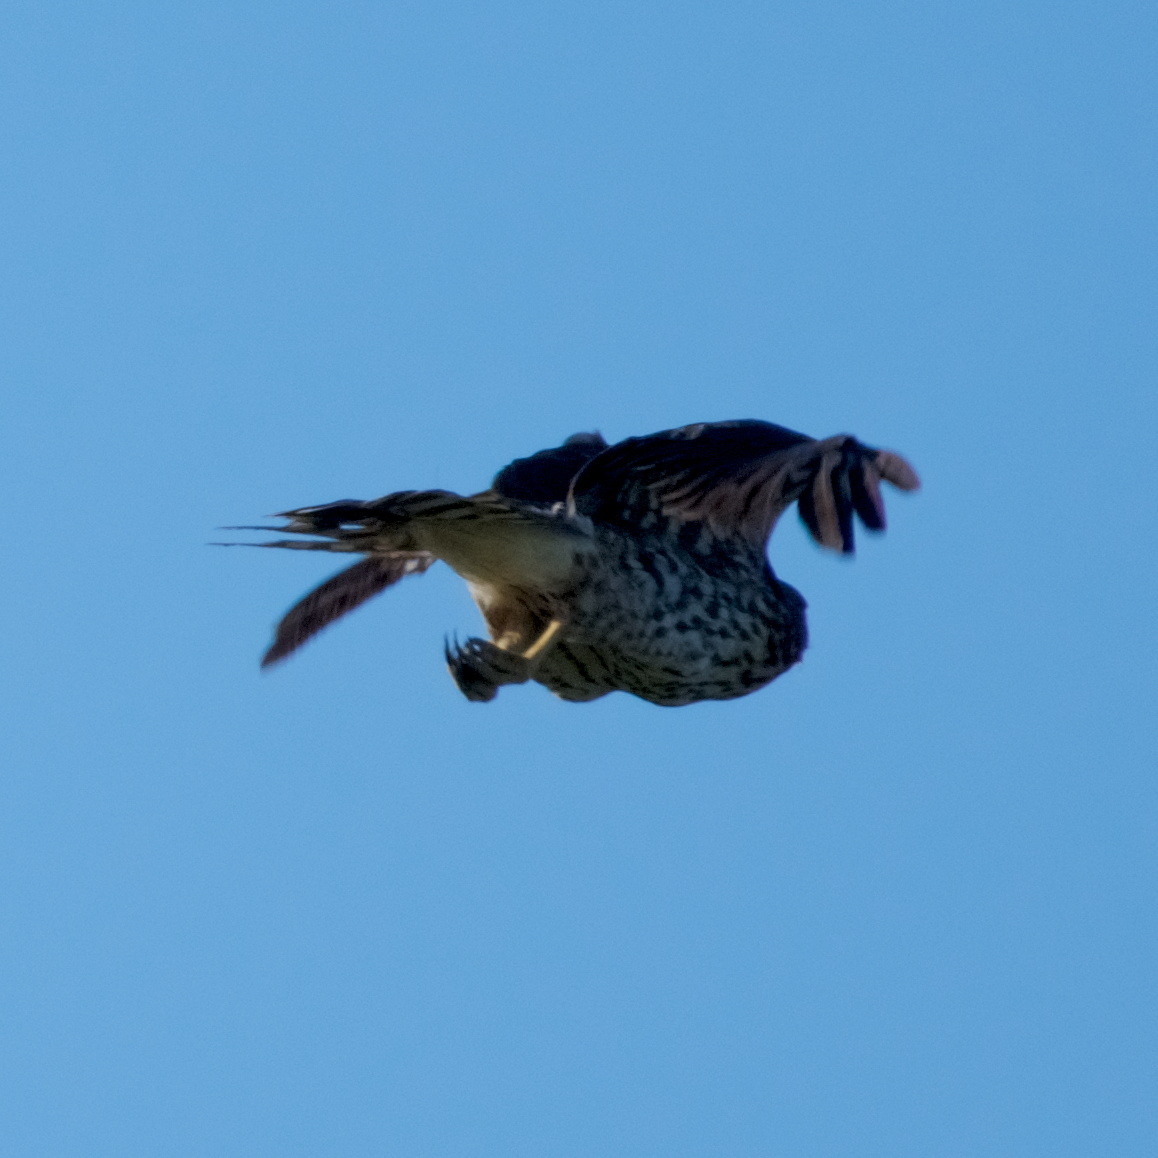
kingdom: Animalia
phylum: Chordata
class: Aves
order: Accipitriformes
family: Accipitridae
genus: Accipiter
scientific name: Accipiter cooperii
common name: Cooper's hawk
